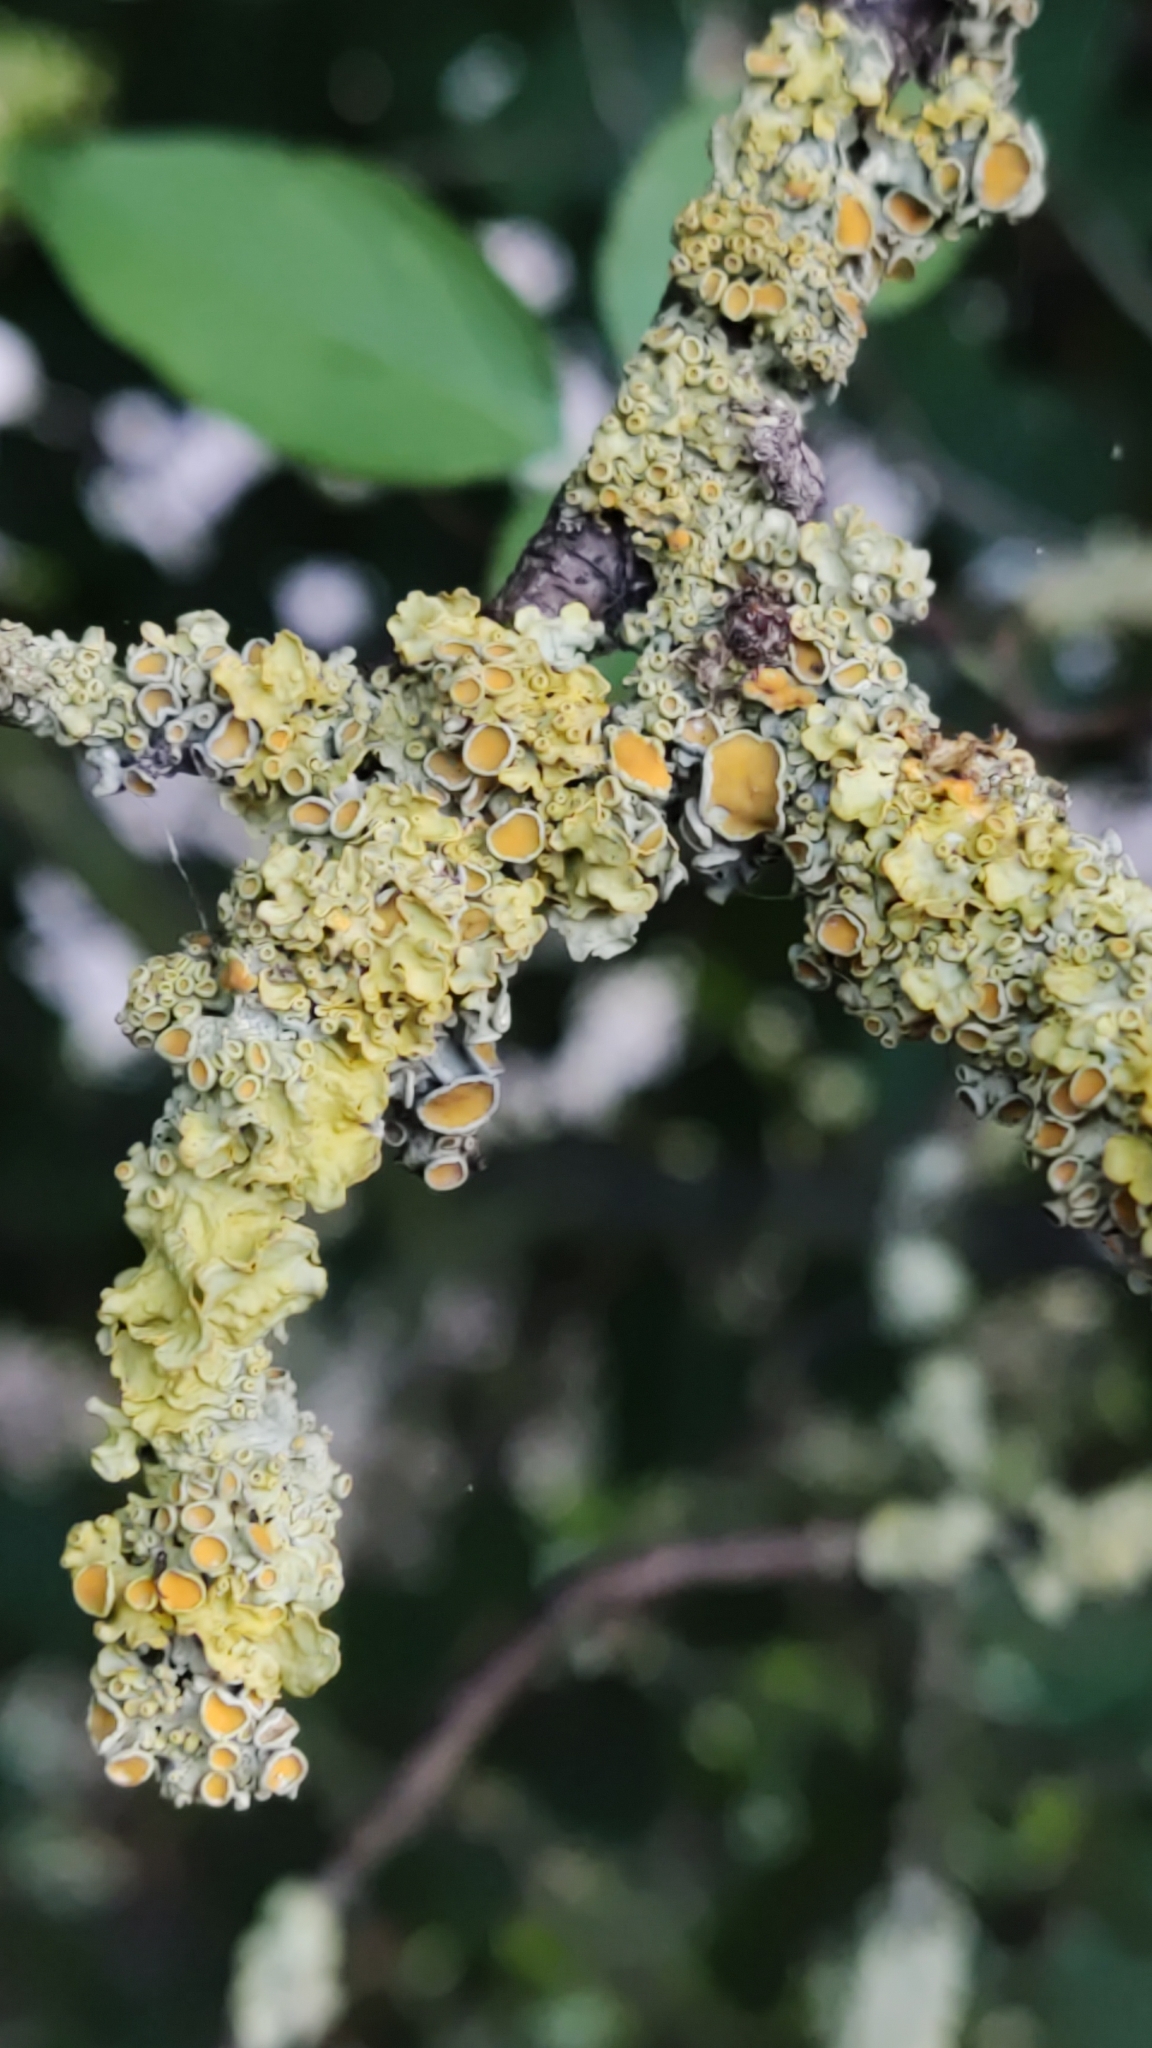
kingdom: Fungi
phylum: Ascomycota
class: Lecanoromycetes
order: Teloschistales
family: Teloschistaceae
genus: Xanthoria
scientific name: Xanthoria parietina
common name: Common orange lichen
